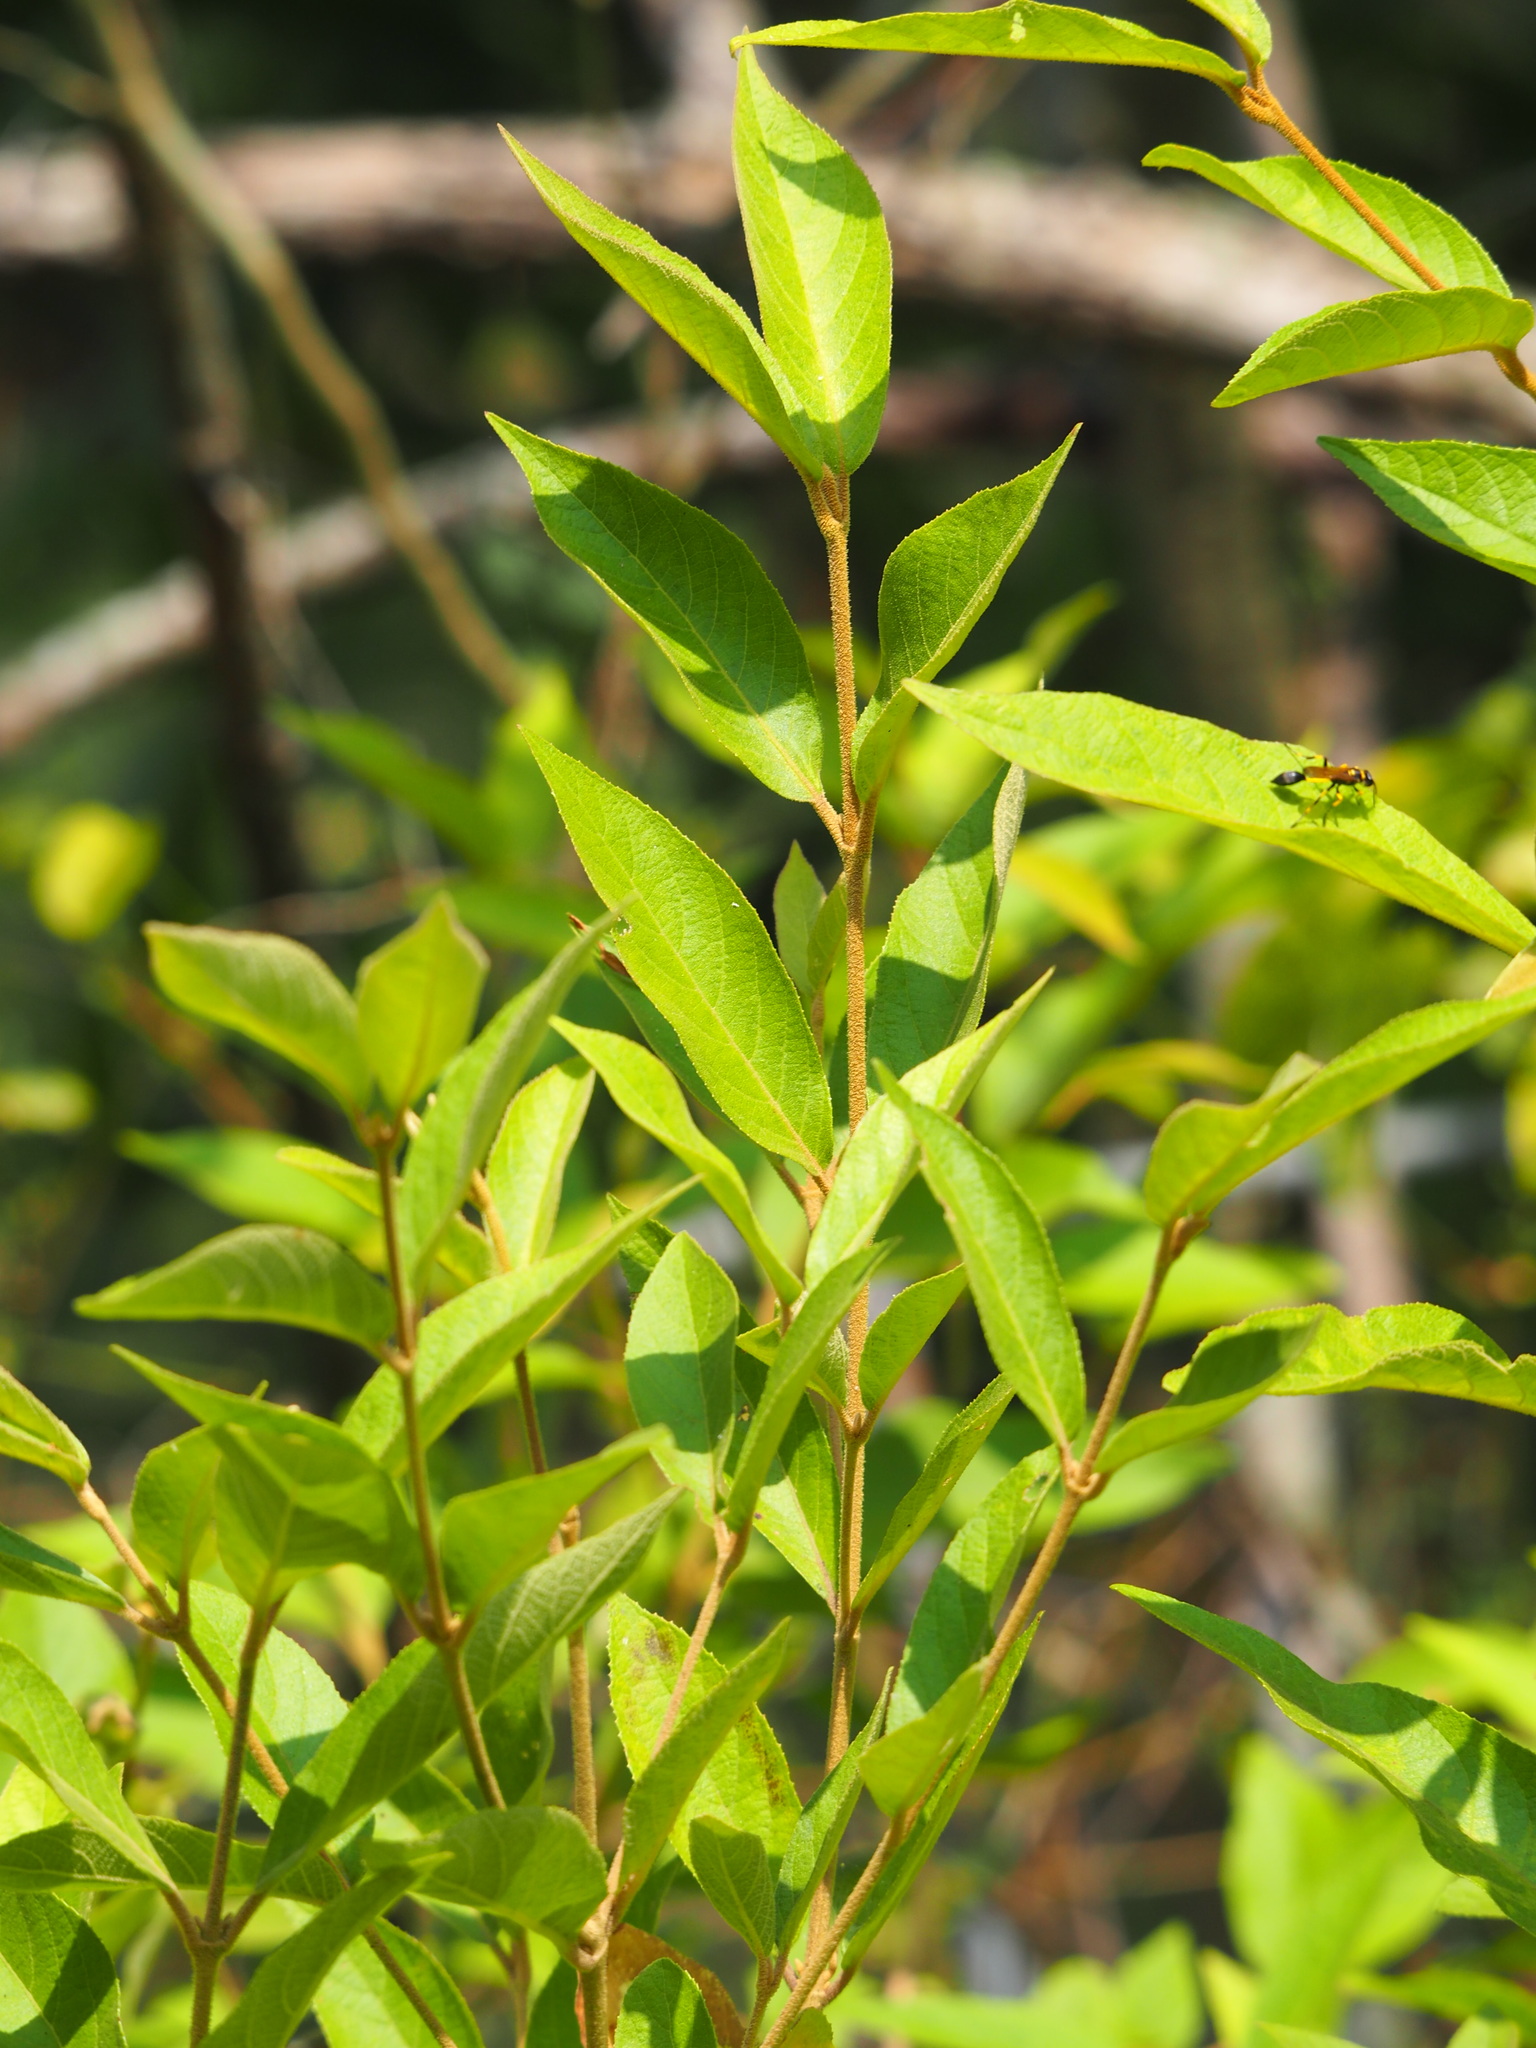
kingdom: Plantae
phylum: Tracheophyta
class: Magnoliopsida
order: Lamiales
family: Lamiaceae
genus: Callicarpa
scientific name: Callicarpa pedunculata
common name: Velvetleaf
